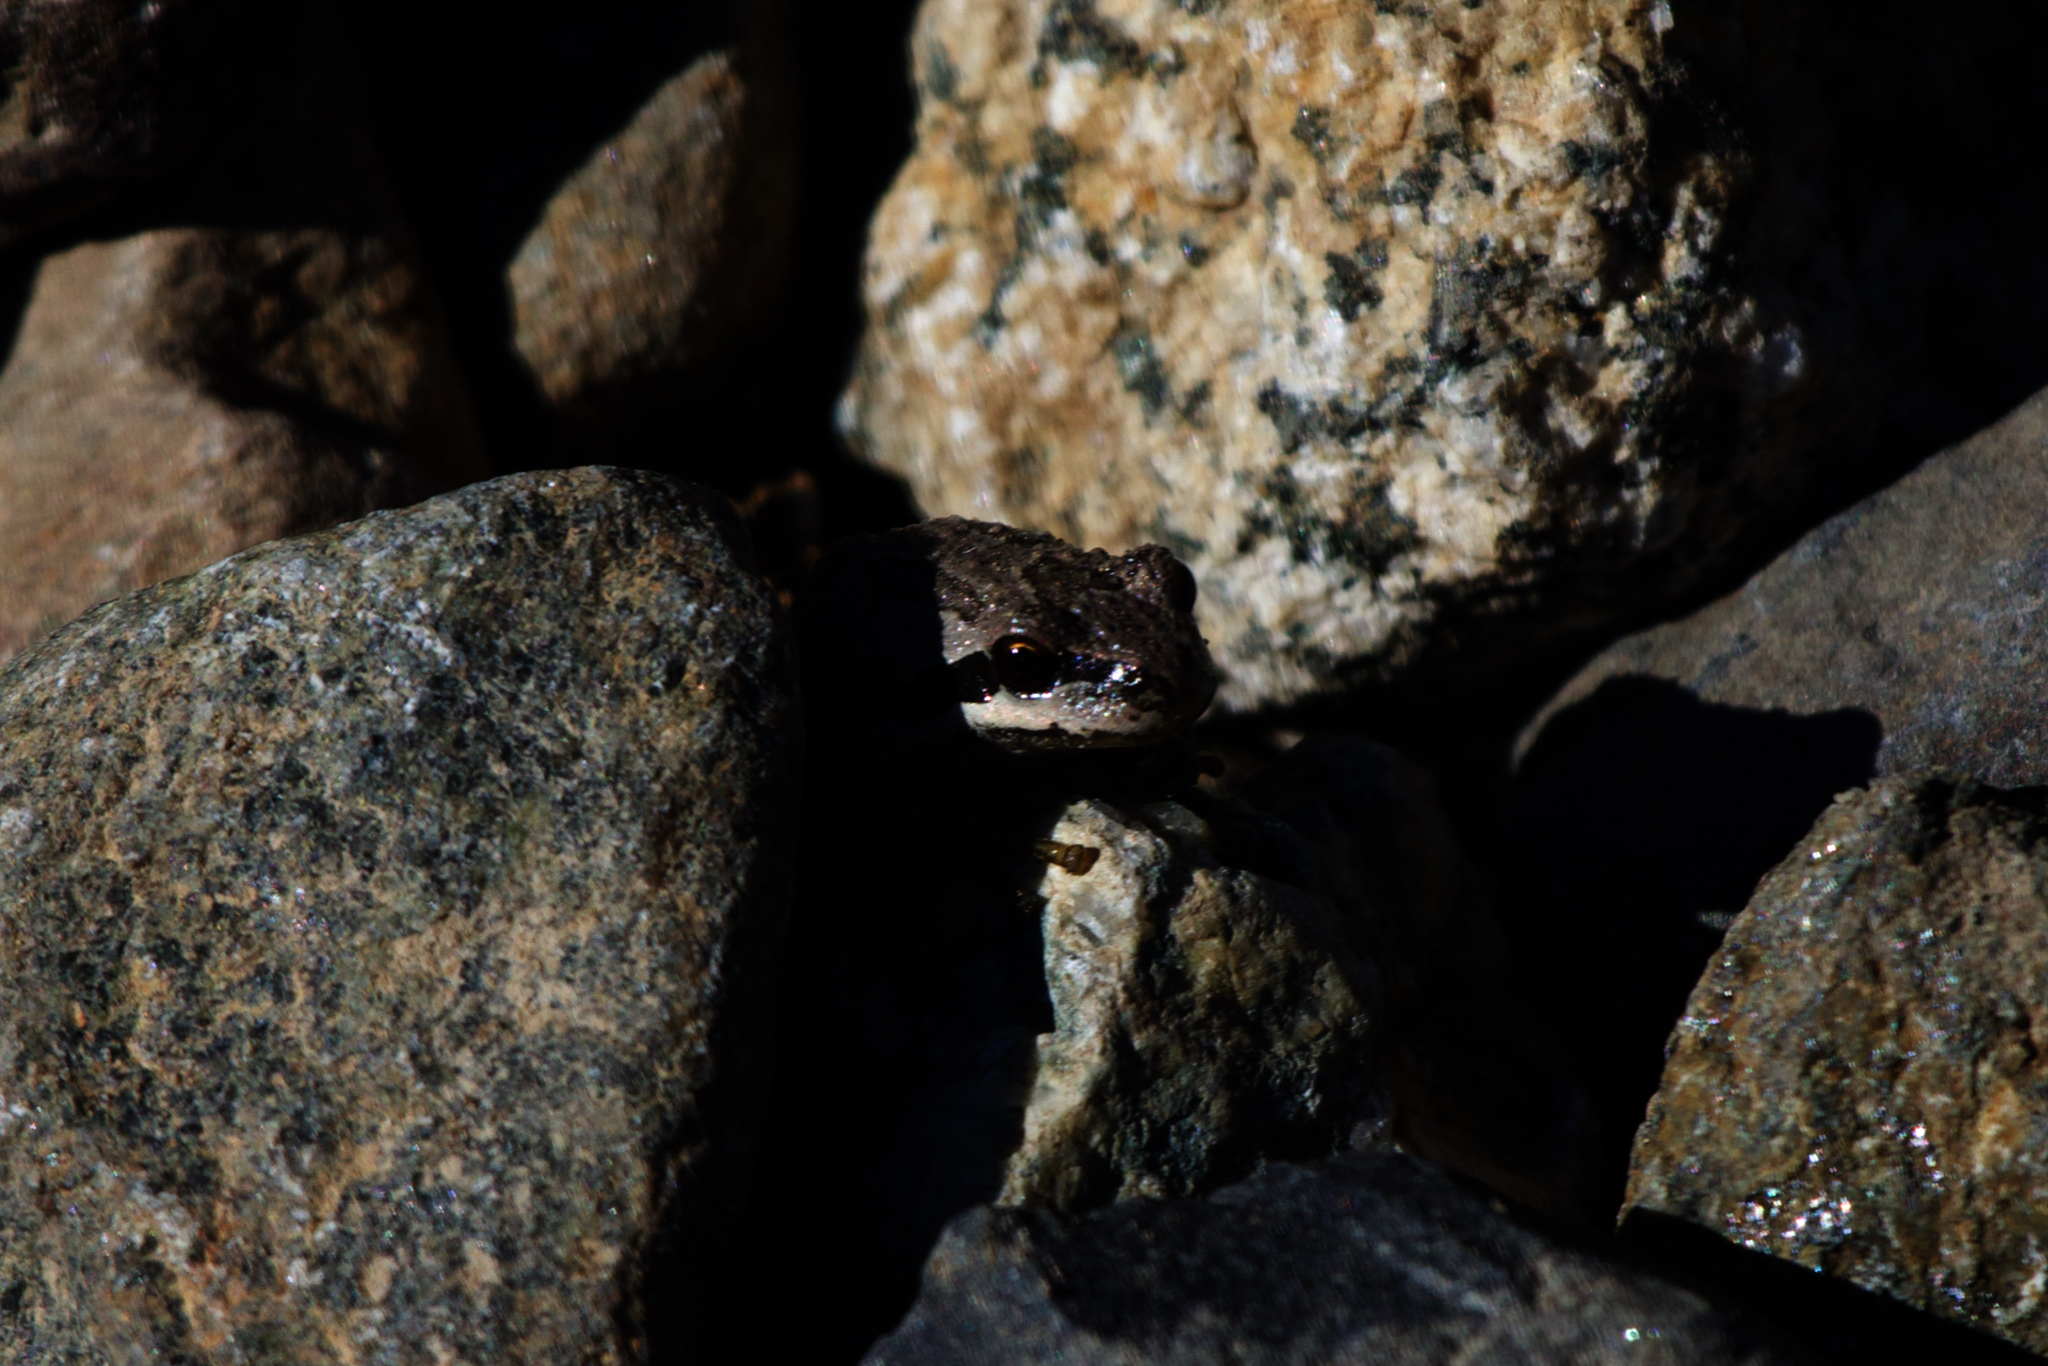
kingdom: Animalia
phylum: Chordata
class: Amphibia
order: Anura
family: Hylidae
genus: Pseudacris
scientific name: Pseudacris regilla
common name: Pacific chorus frog
